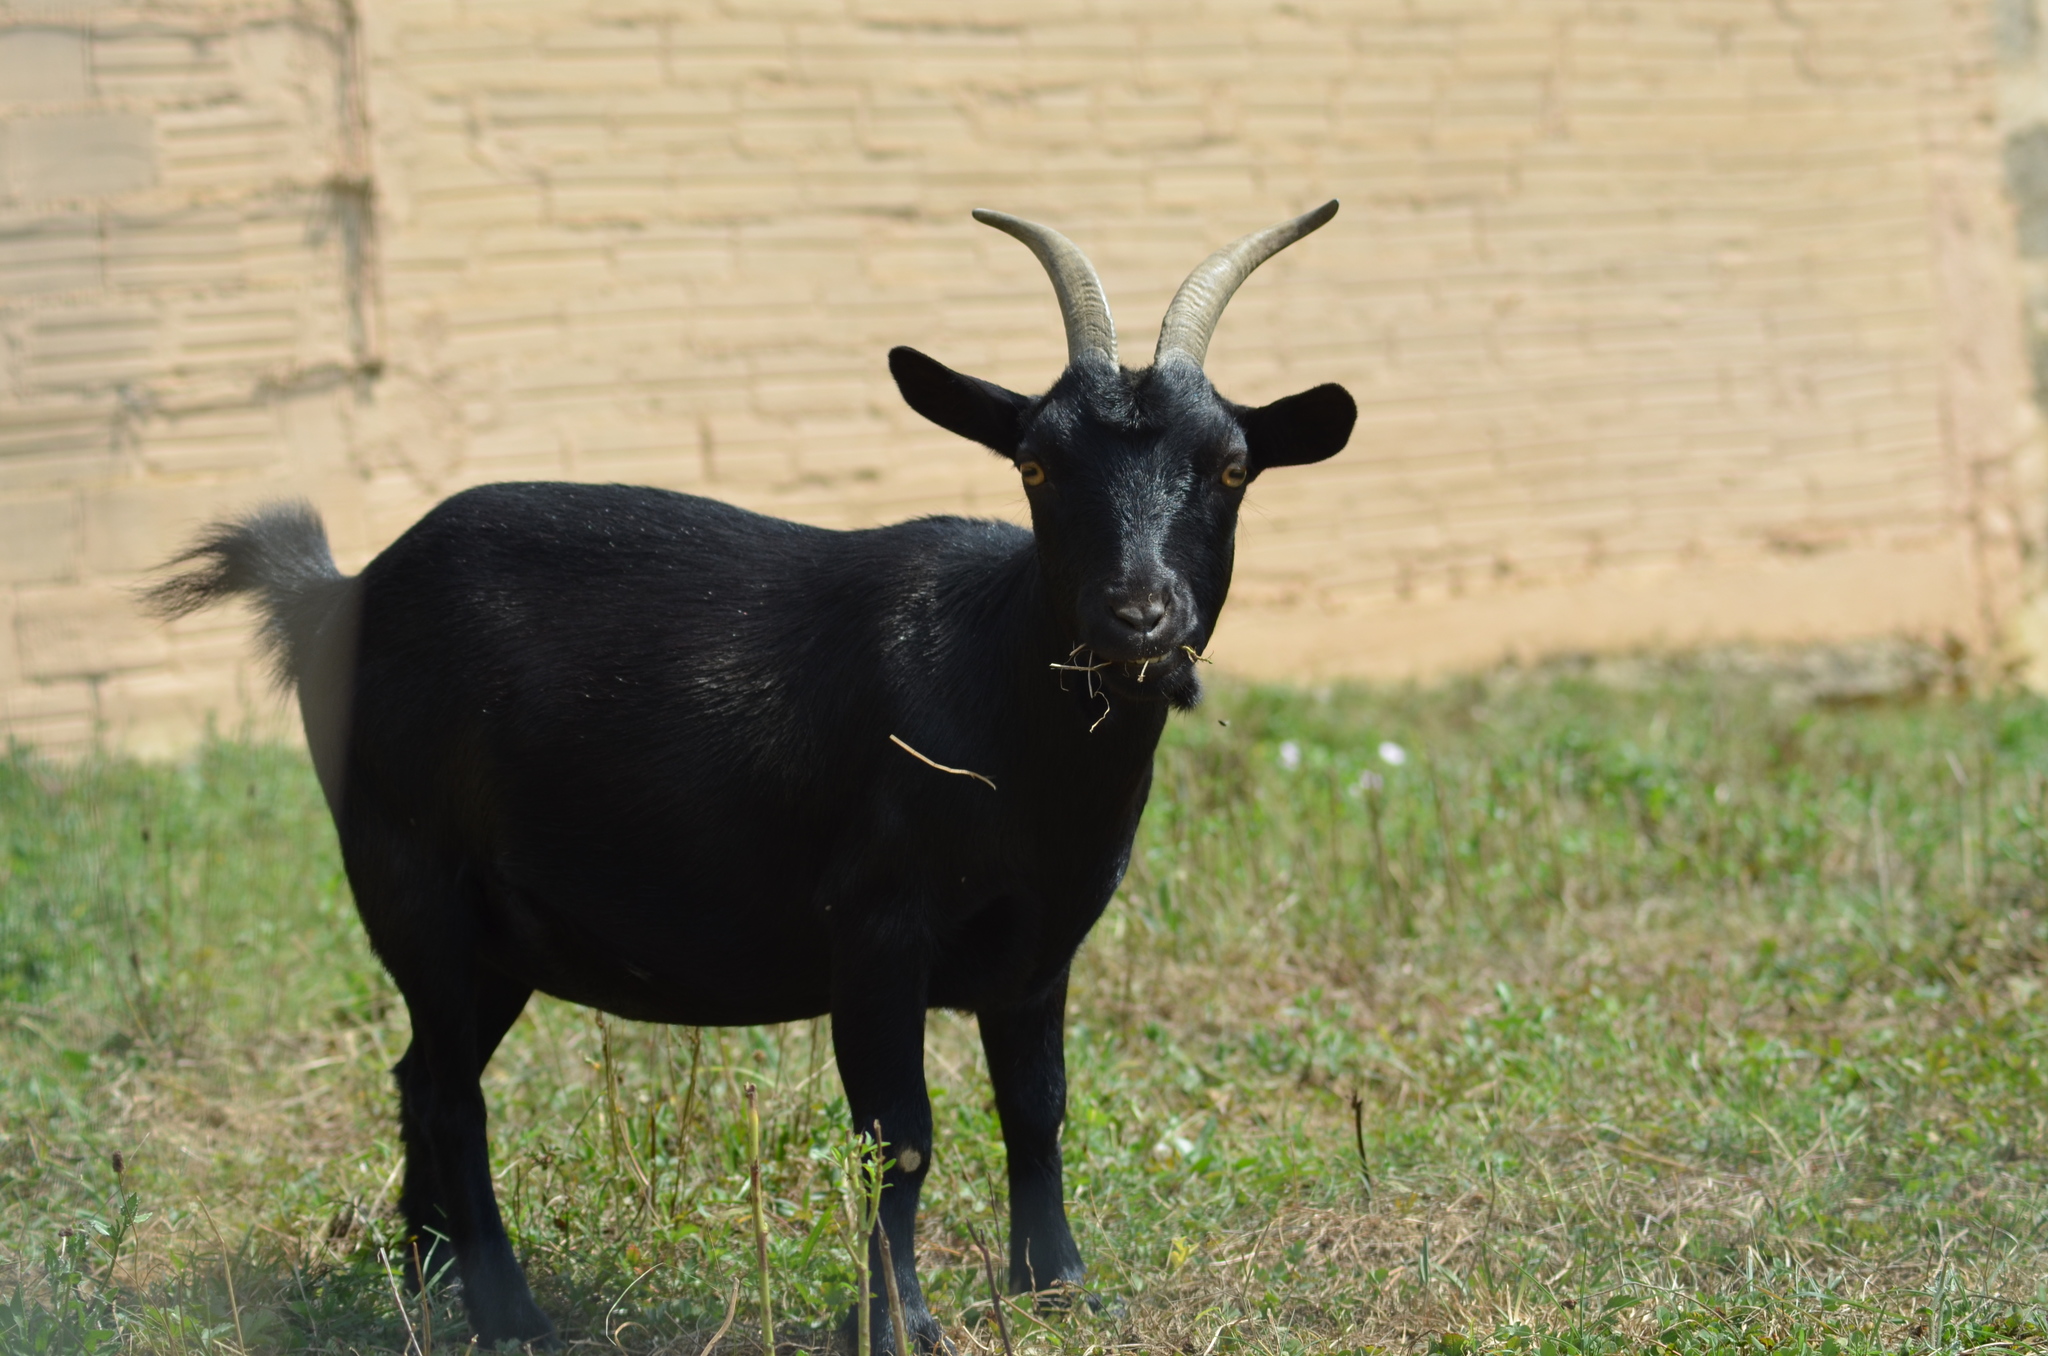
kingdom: Animalia
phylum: Chordata
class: Mammalia
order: Artiodactyla
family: Bovidae
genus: Capra
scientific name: Capra hircus
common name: Domestic goat
